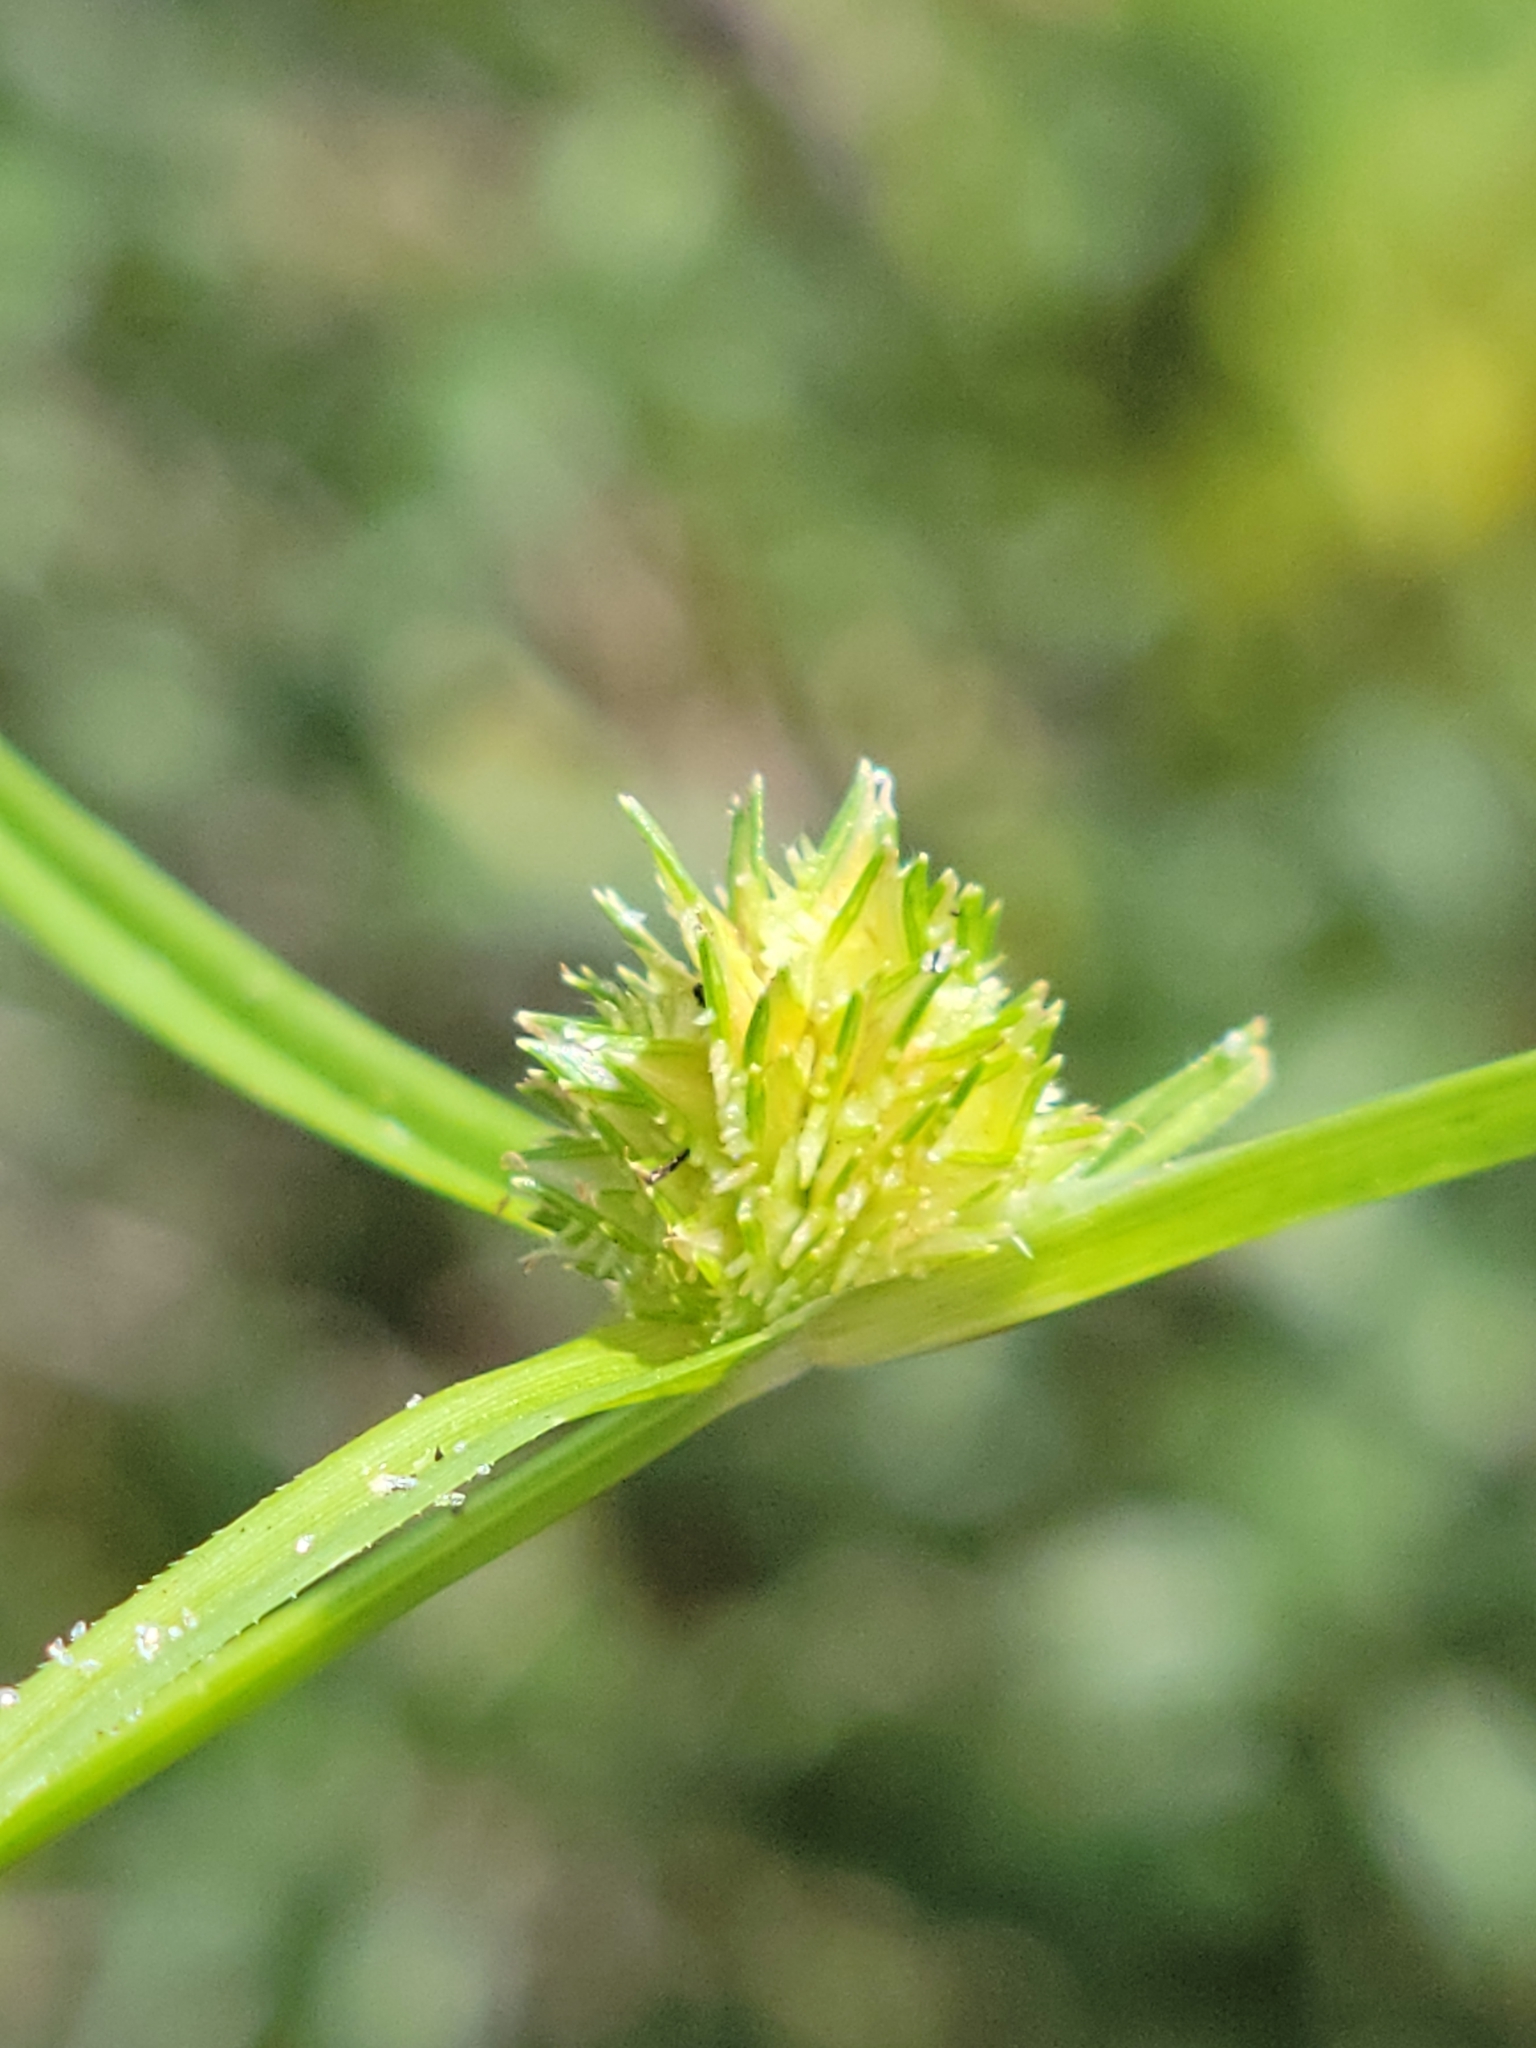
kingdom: Plantae
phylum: Tracheophyta
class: Liliopsida
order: Poales
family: Cyperaceae
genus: Cyperus
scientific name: Cyperus metzii
